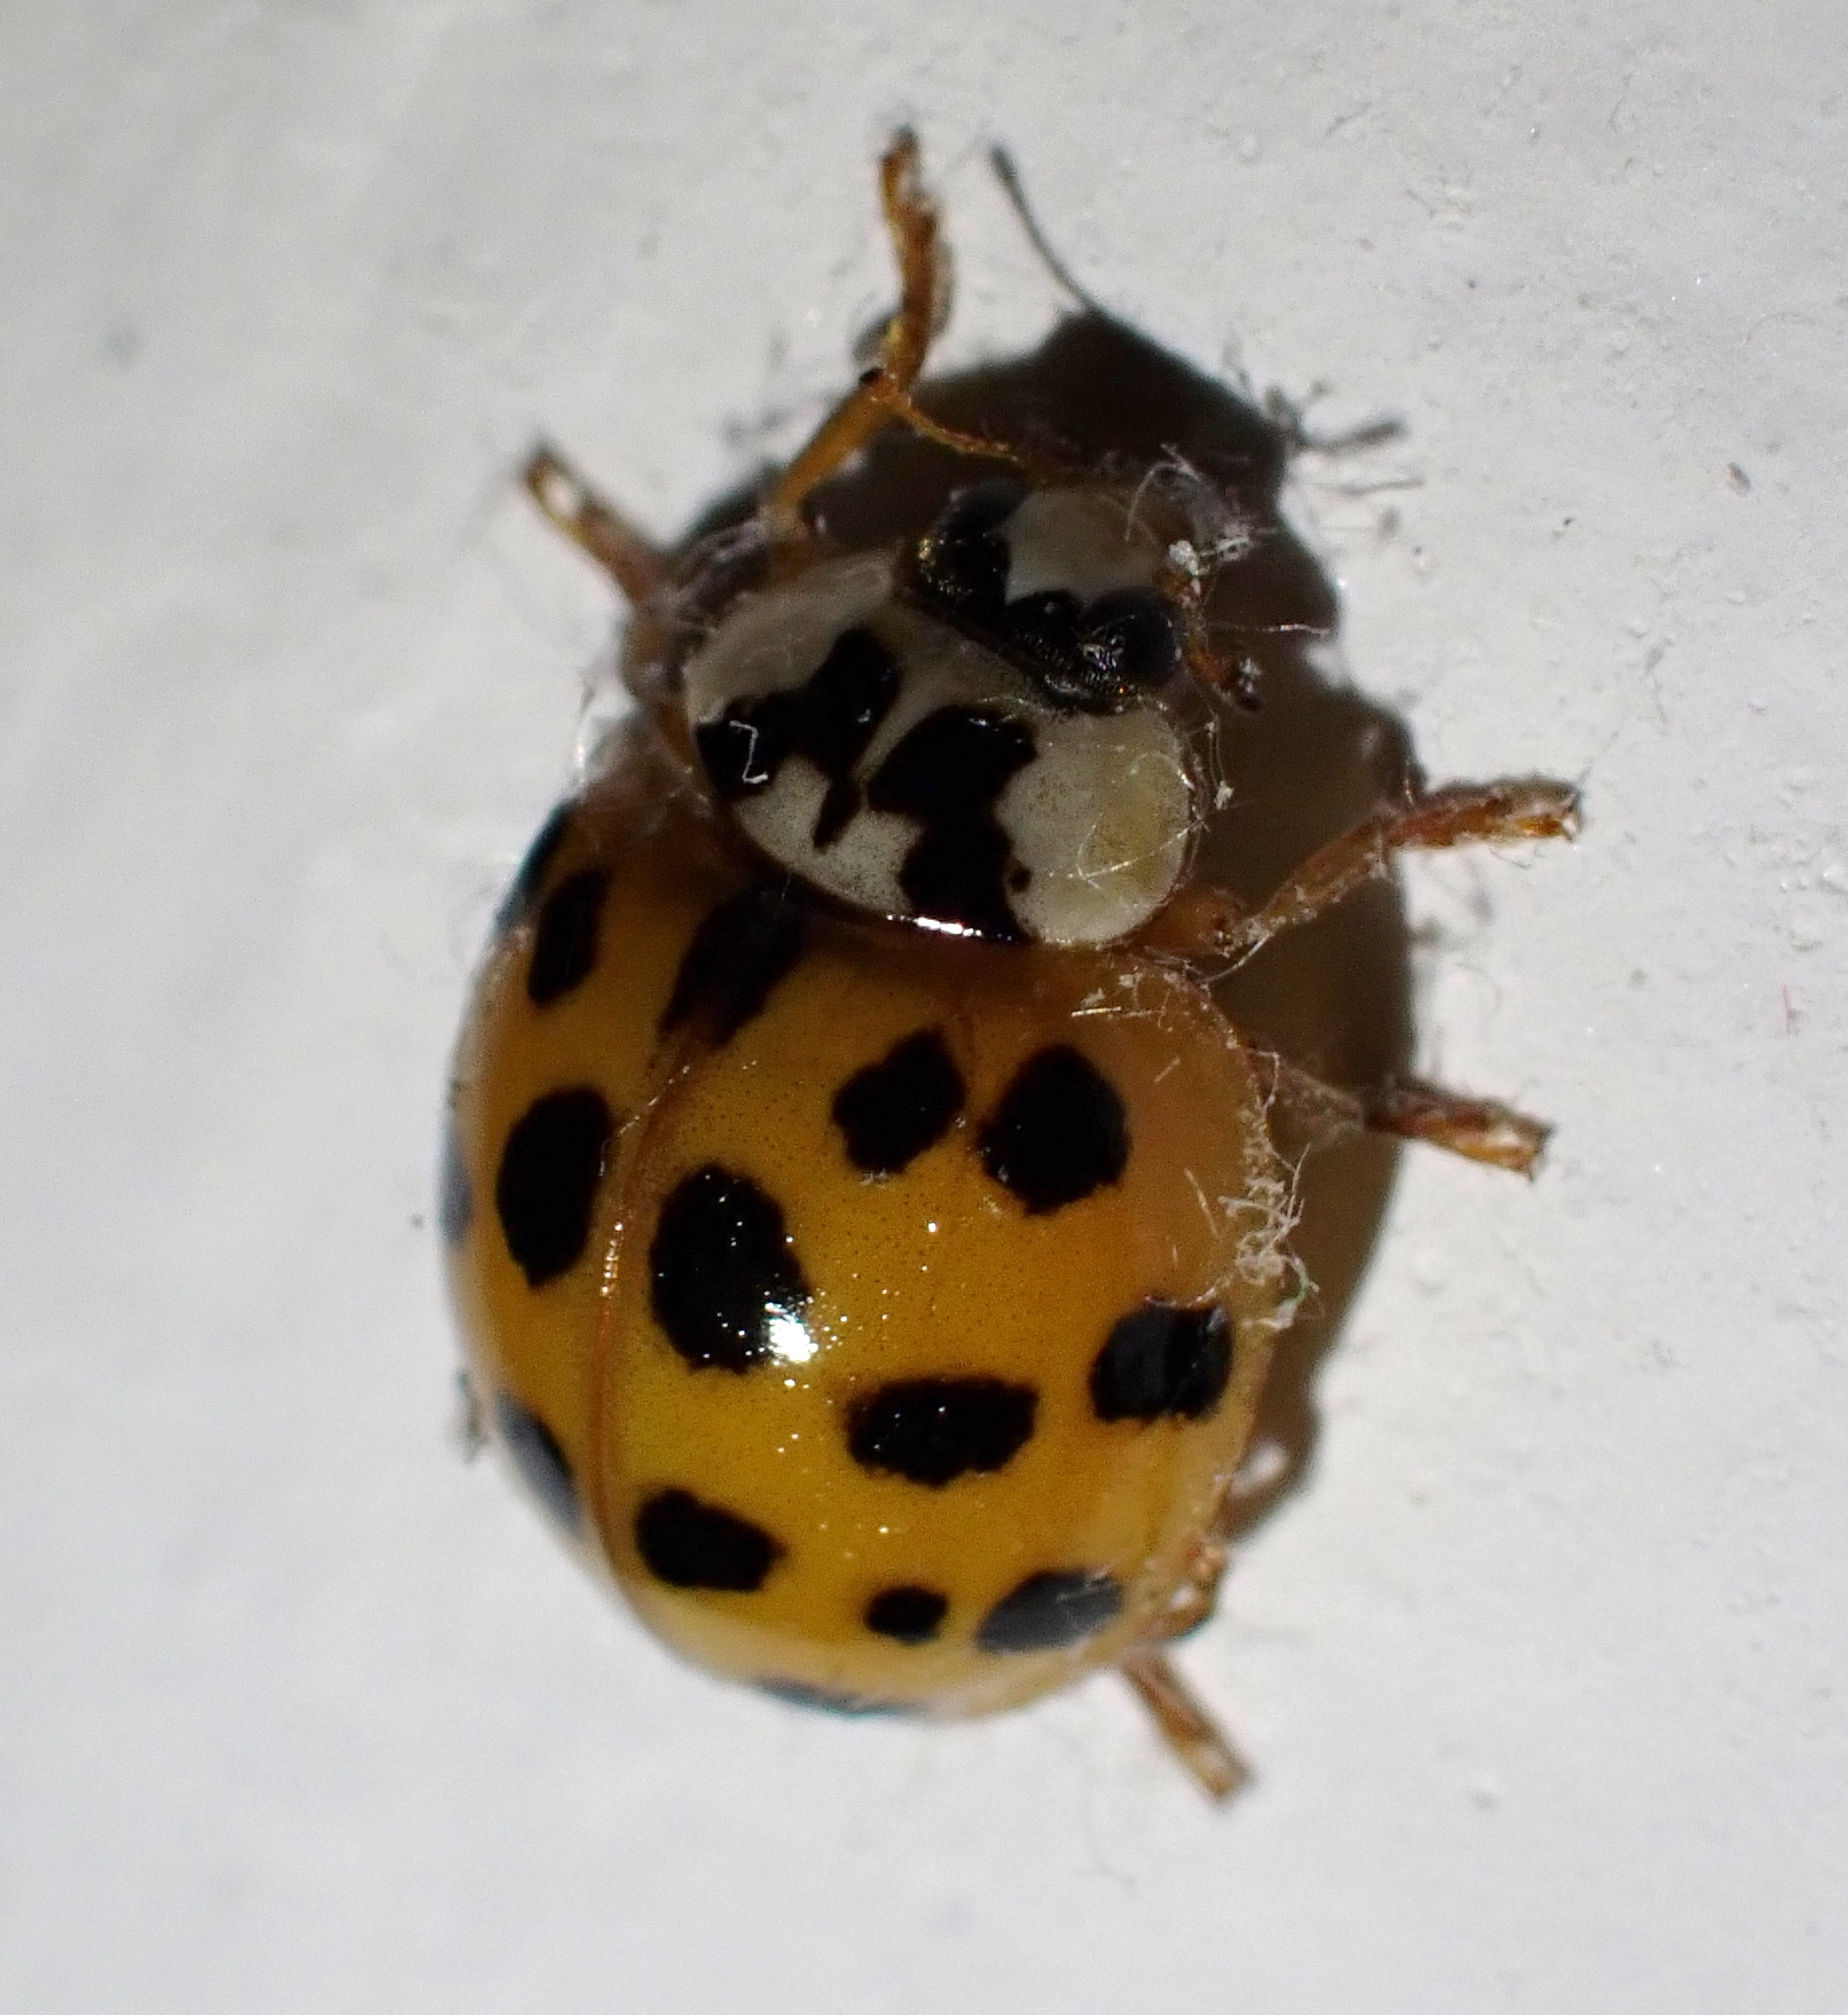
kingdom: Animalia
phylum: Arthropoda
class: Insecta
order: Coleoptera
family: Coccinellidae
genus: Harmonia
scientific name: Harmonia axyridis
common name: Harlequin ladybird
